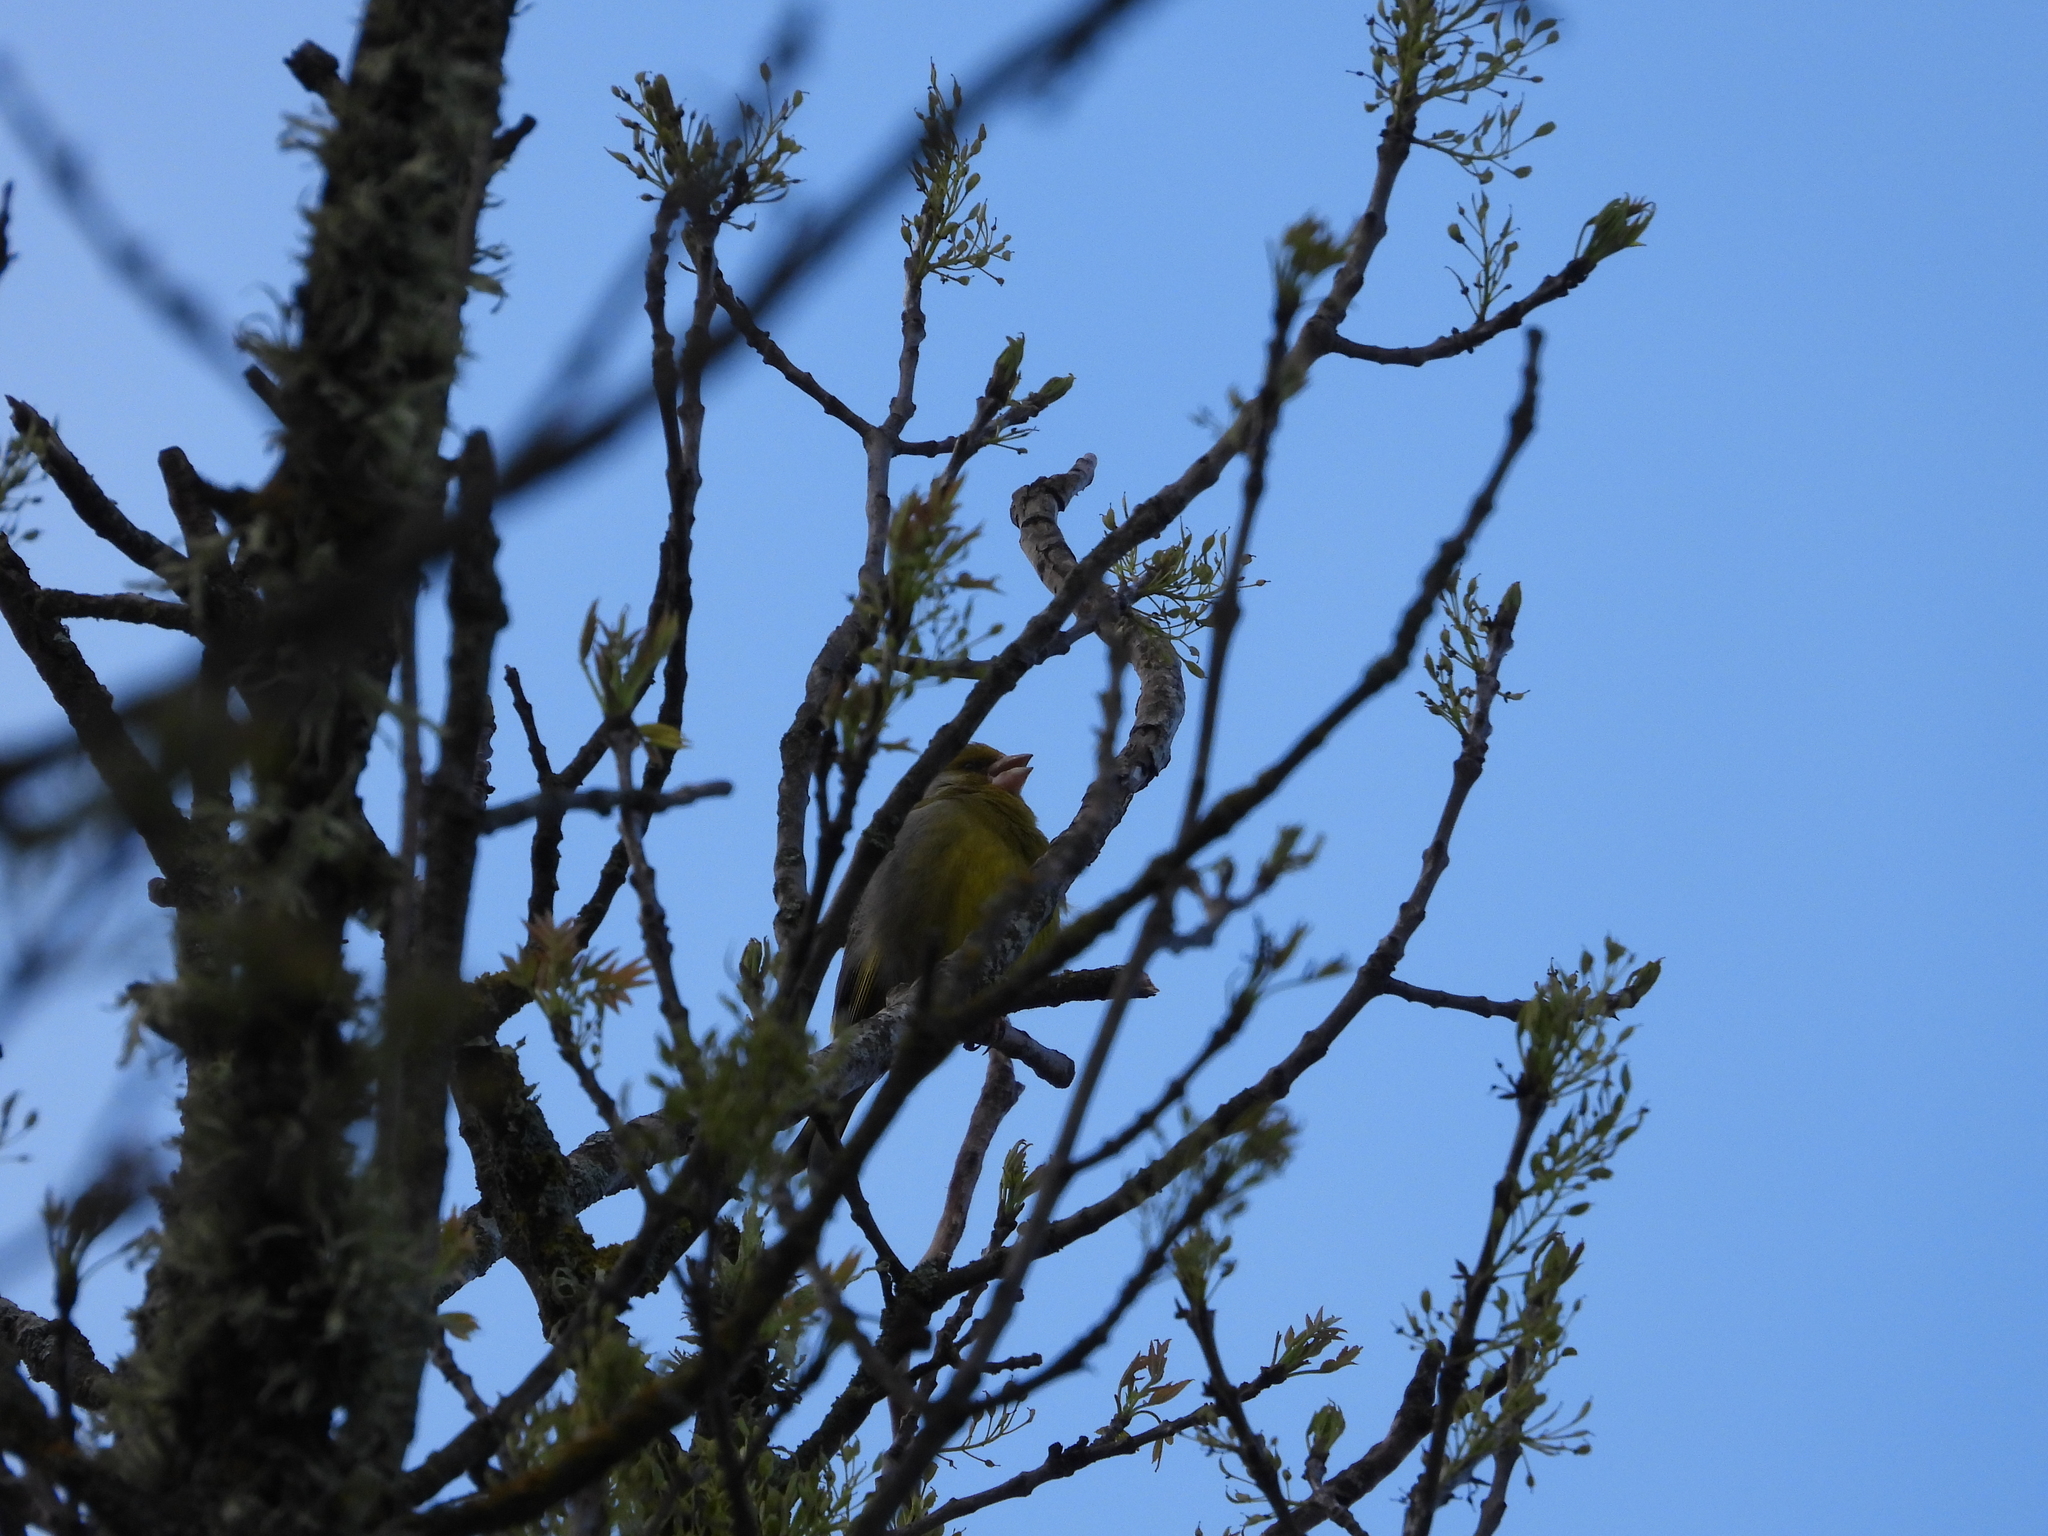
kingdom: Plantae
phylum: Tracheophyta
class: Liliopsida
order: Poales
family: Poaceae
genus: Chloris
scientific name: Chloris chloris
